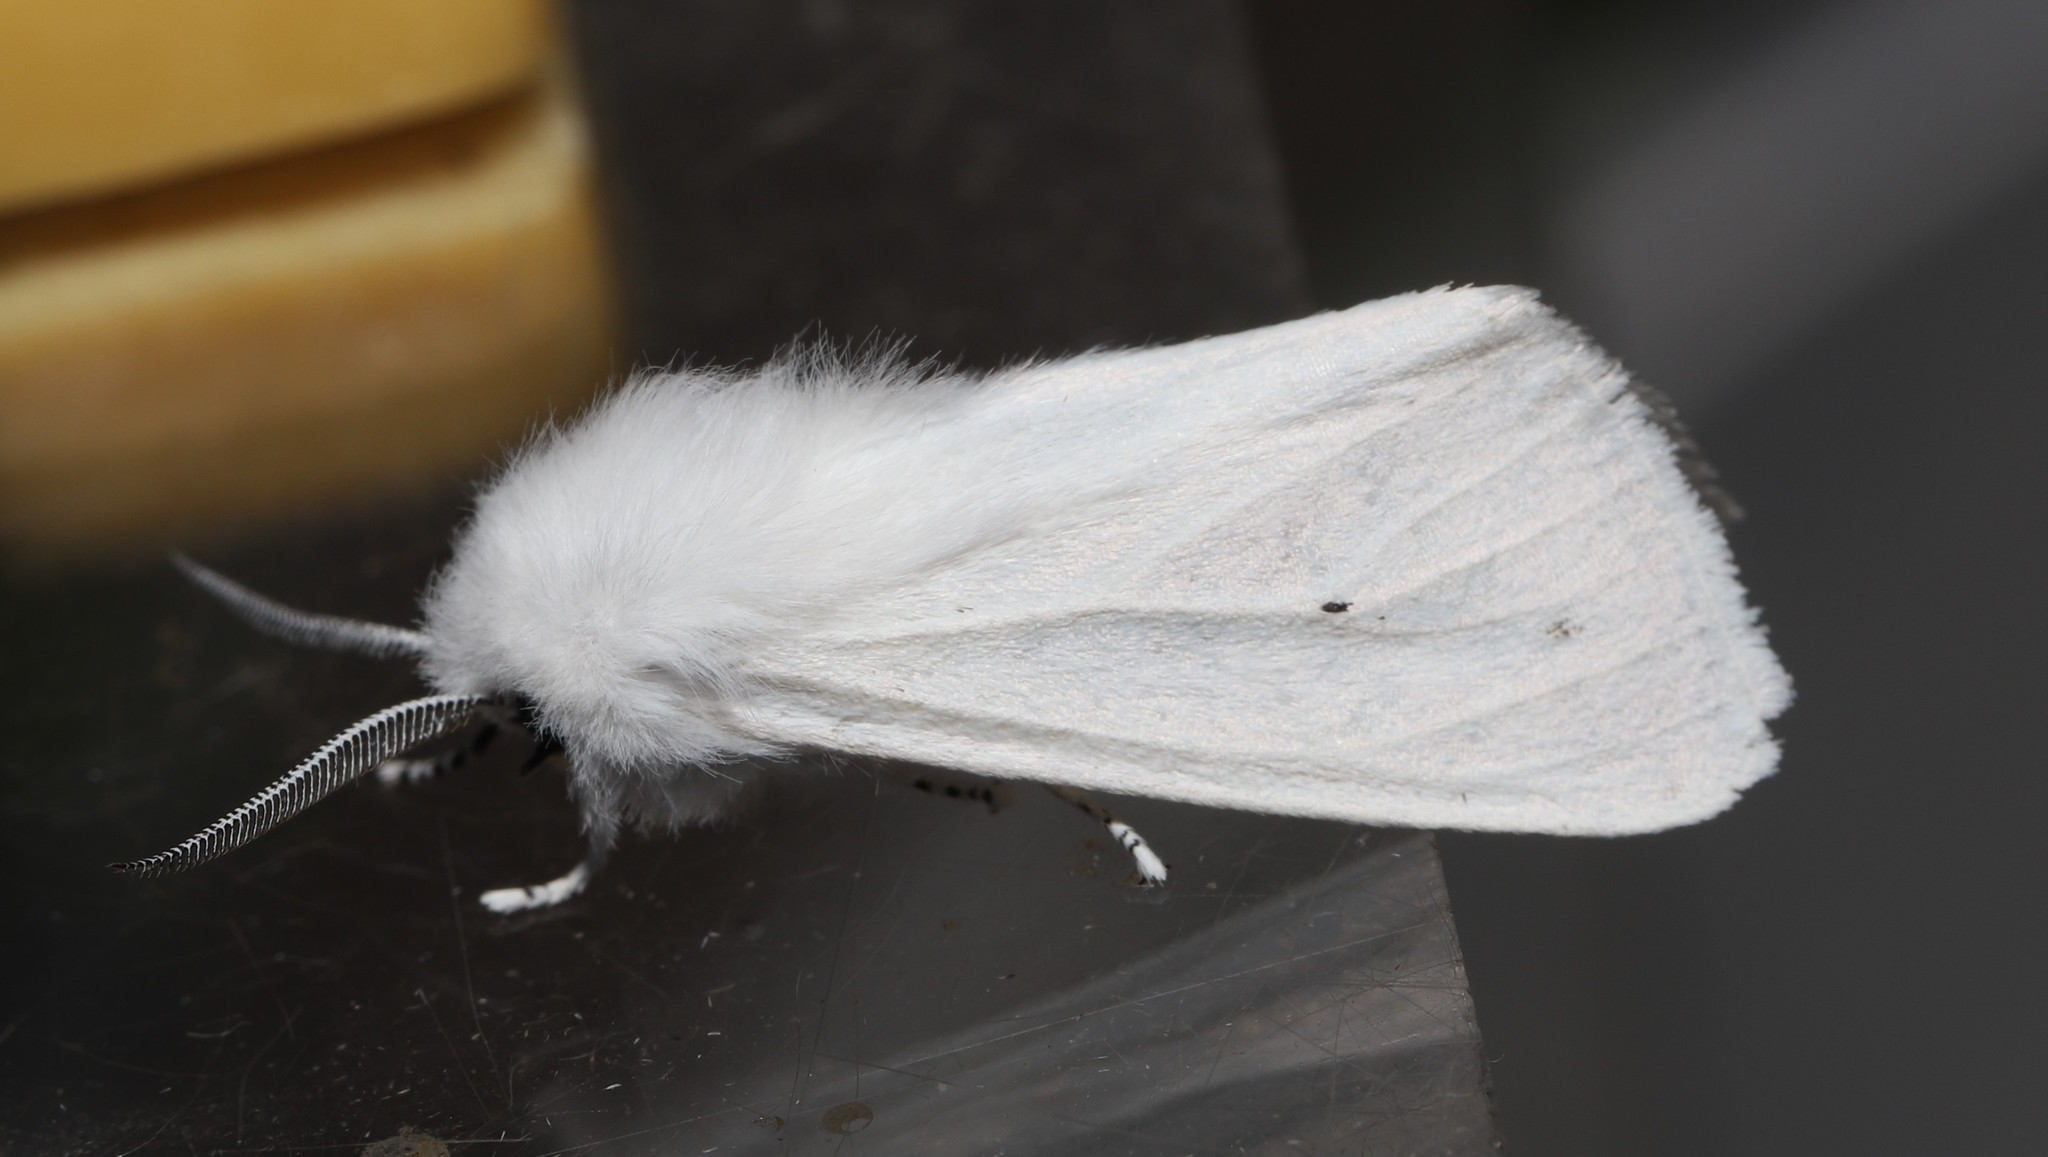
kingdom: Animalia
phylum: Arthropoda
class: Insecta
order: Lepidoptera
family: Erebidae
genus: Spilosoma
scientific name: Spilosoma virginica
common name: Virginia tiger moth
